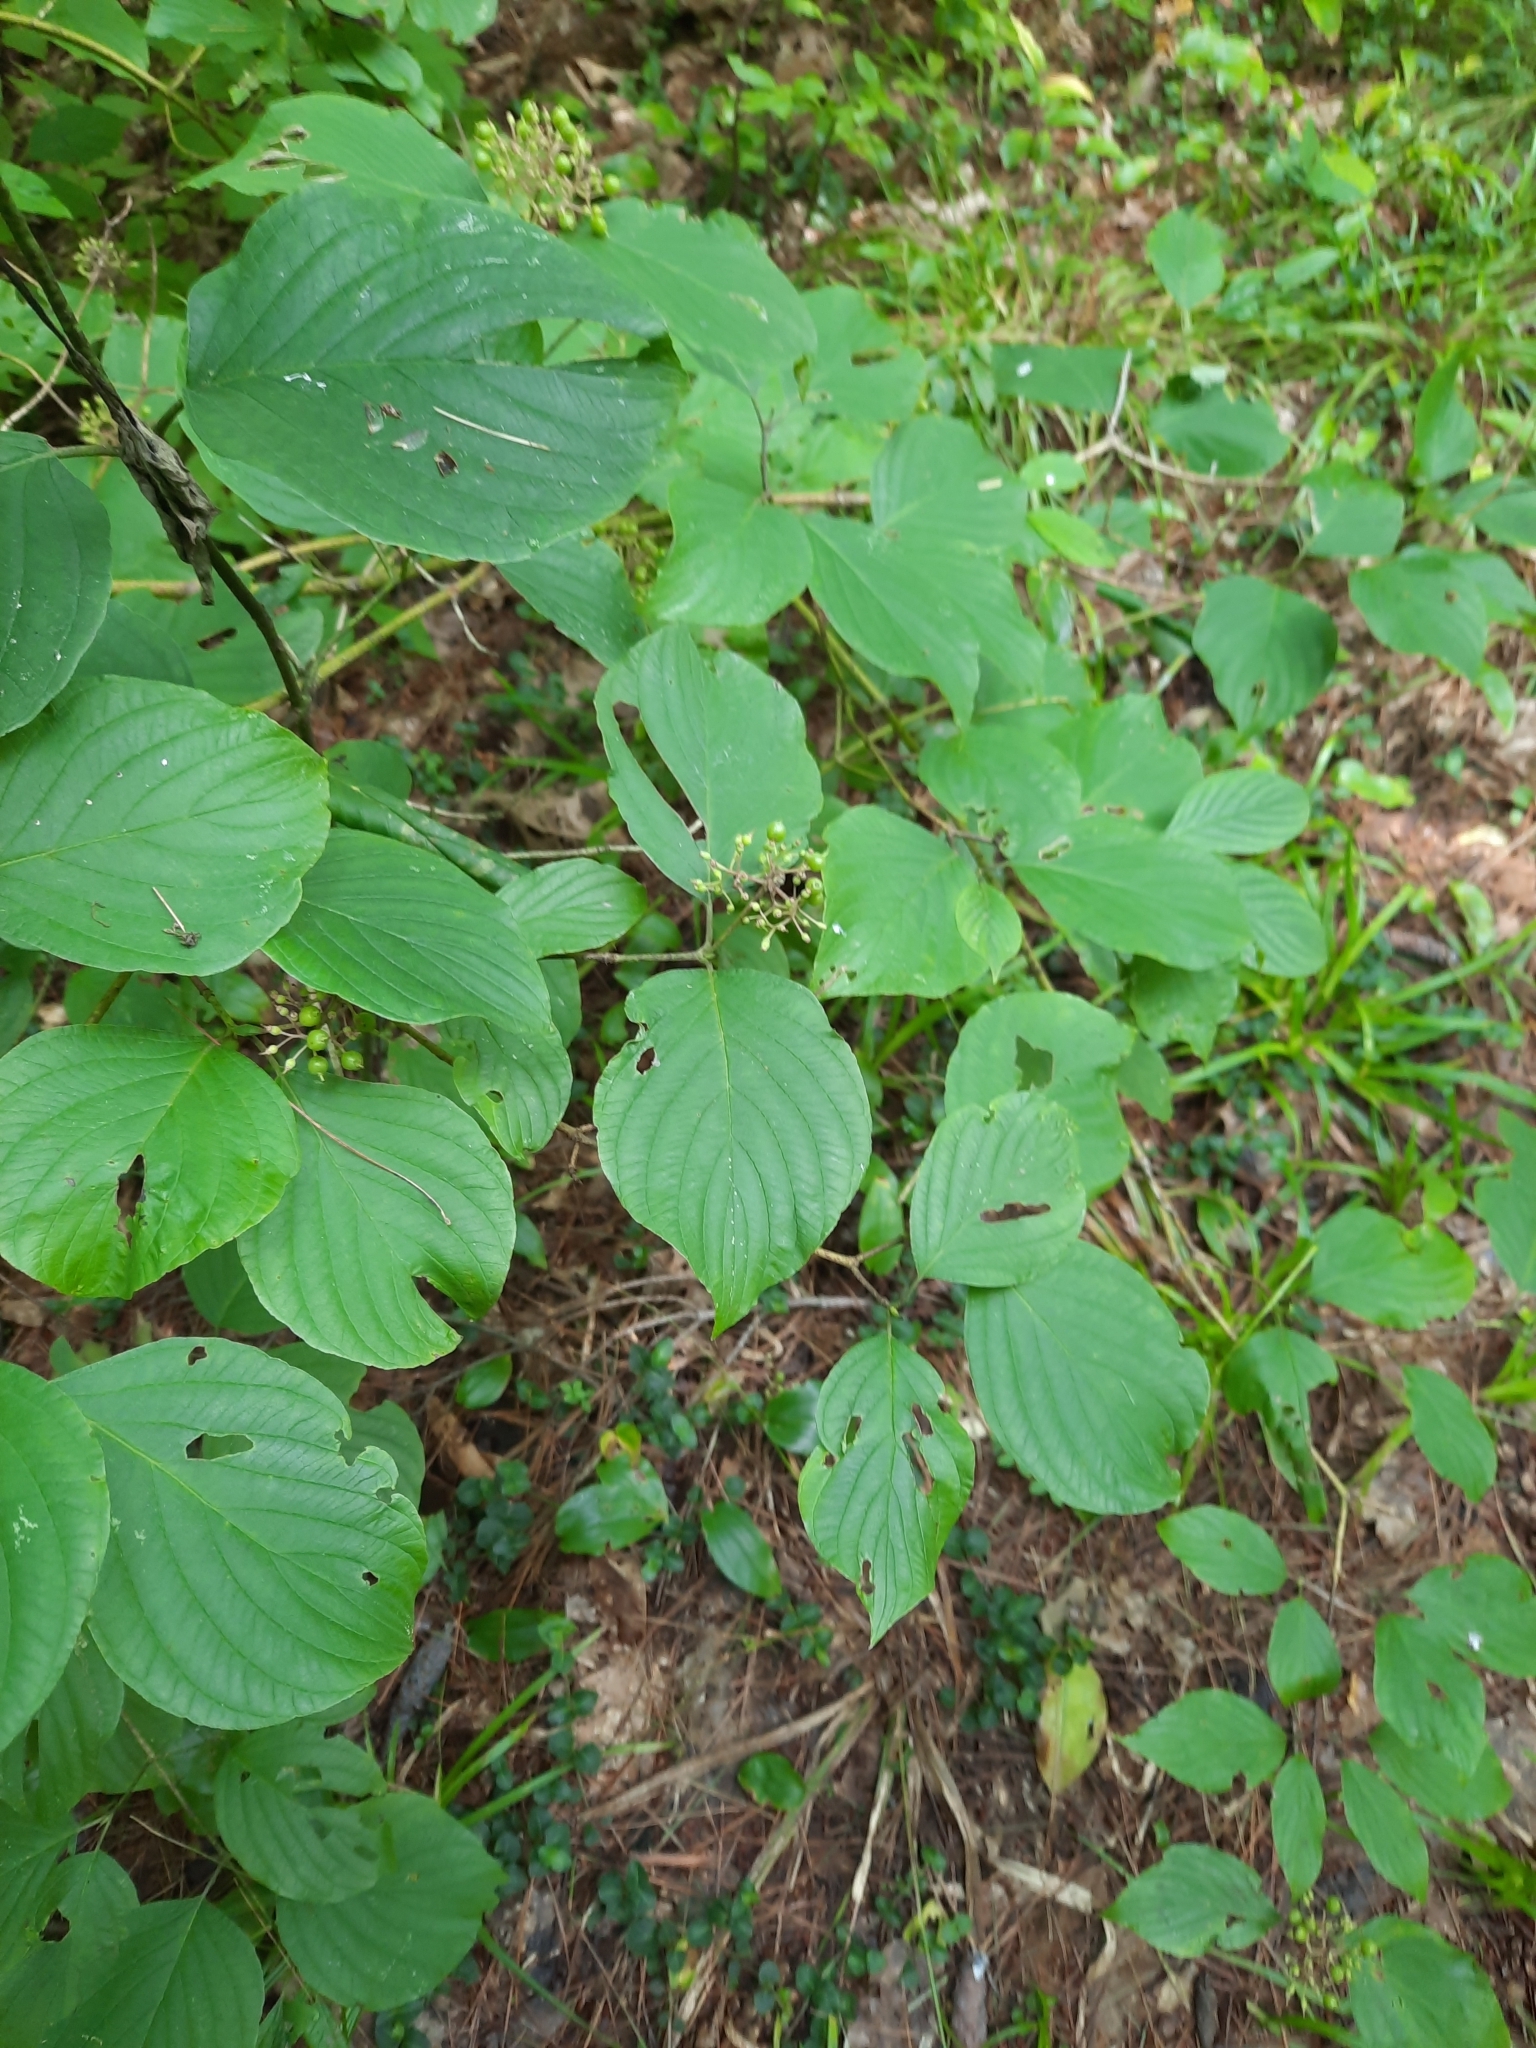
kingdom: Plantae
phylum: Tracheophyta
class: Magnoliopsida
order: Cornales
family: Cornaceae
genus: Cornus
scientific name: Cornus rugosa
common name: Round-leaf dogwood
